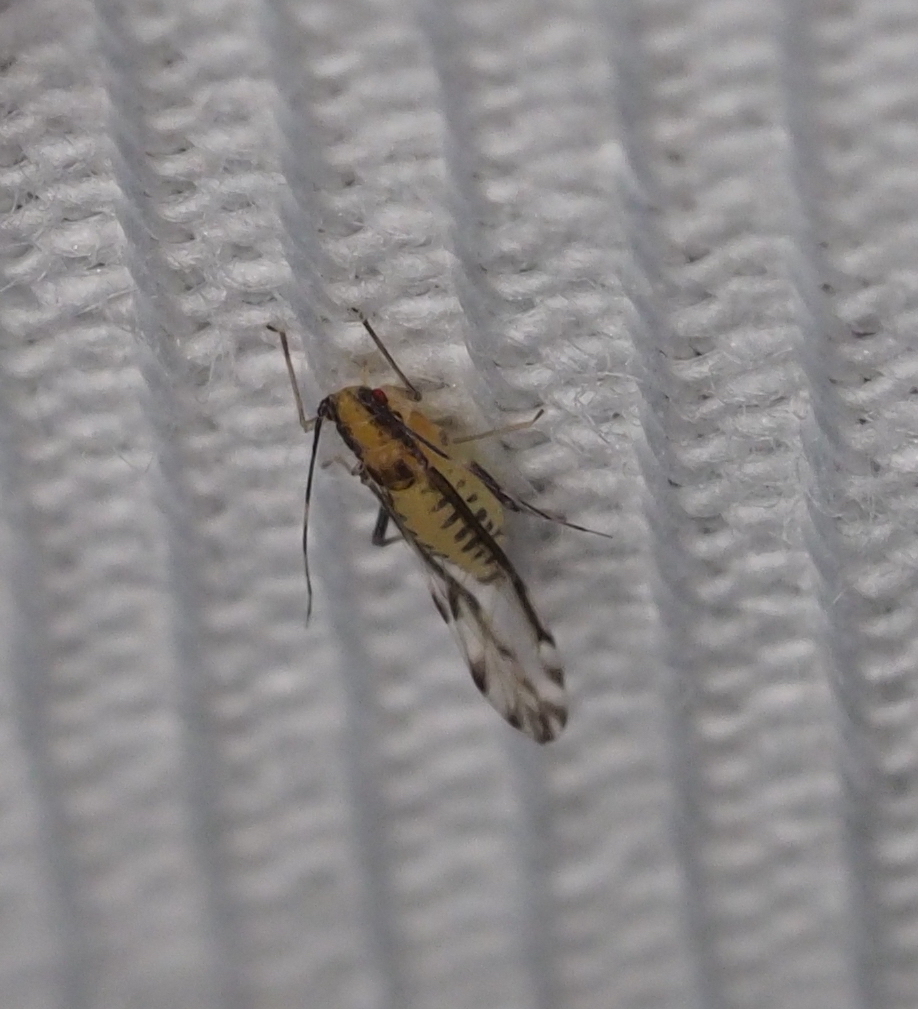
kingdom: Animalia
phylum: Arthropoda
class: Insecta
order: Hemiptera
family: Aphididae
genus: Eucallipterus
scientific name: Eucallipterus tiliae
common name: Aphid
